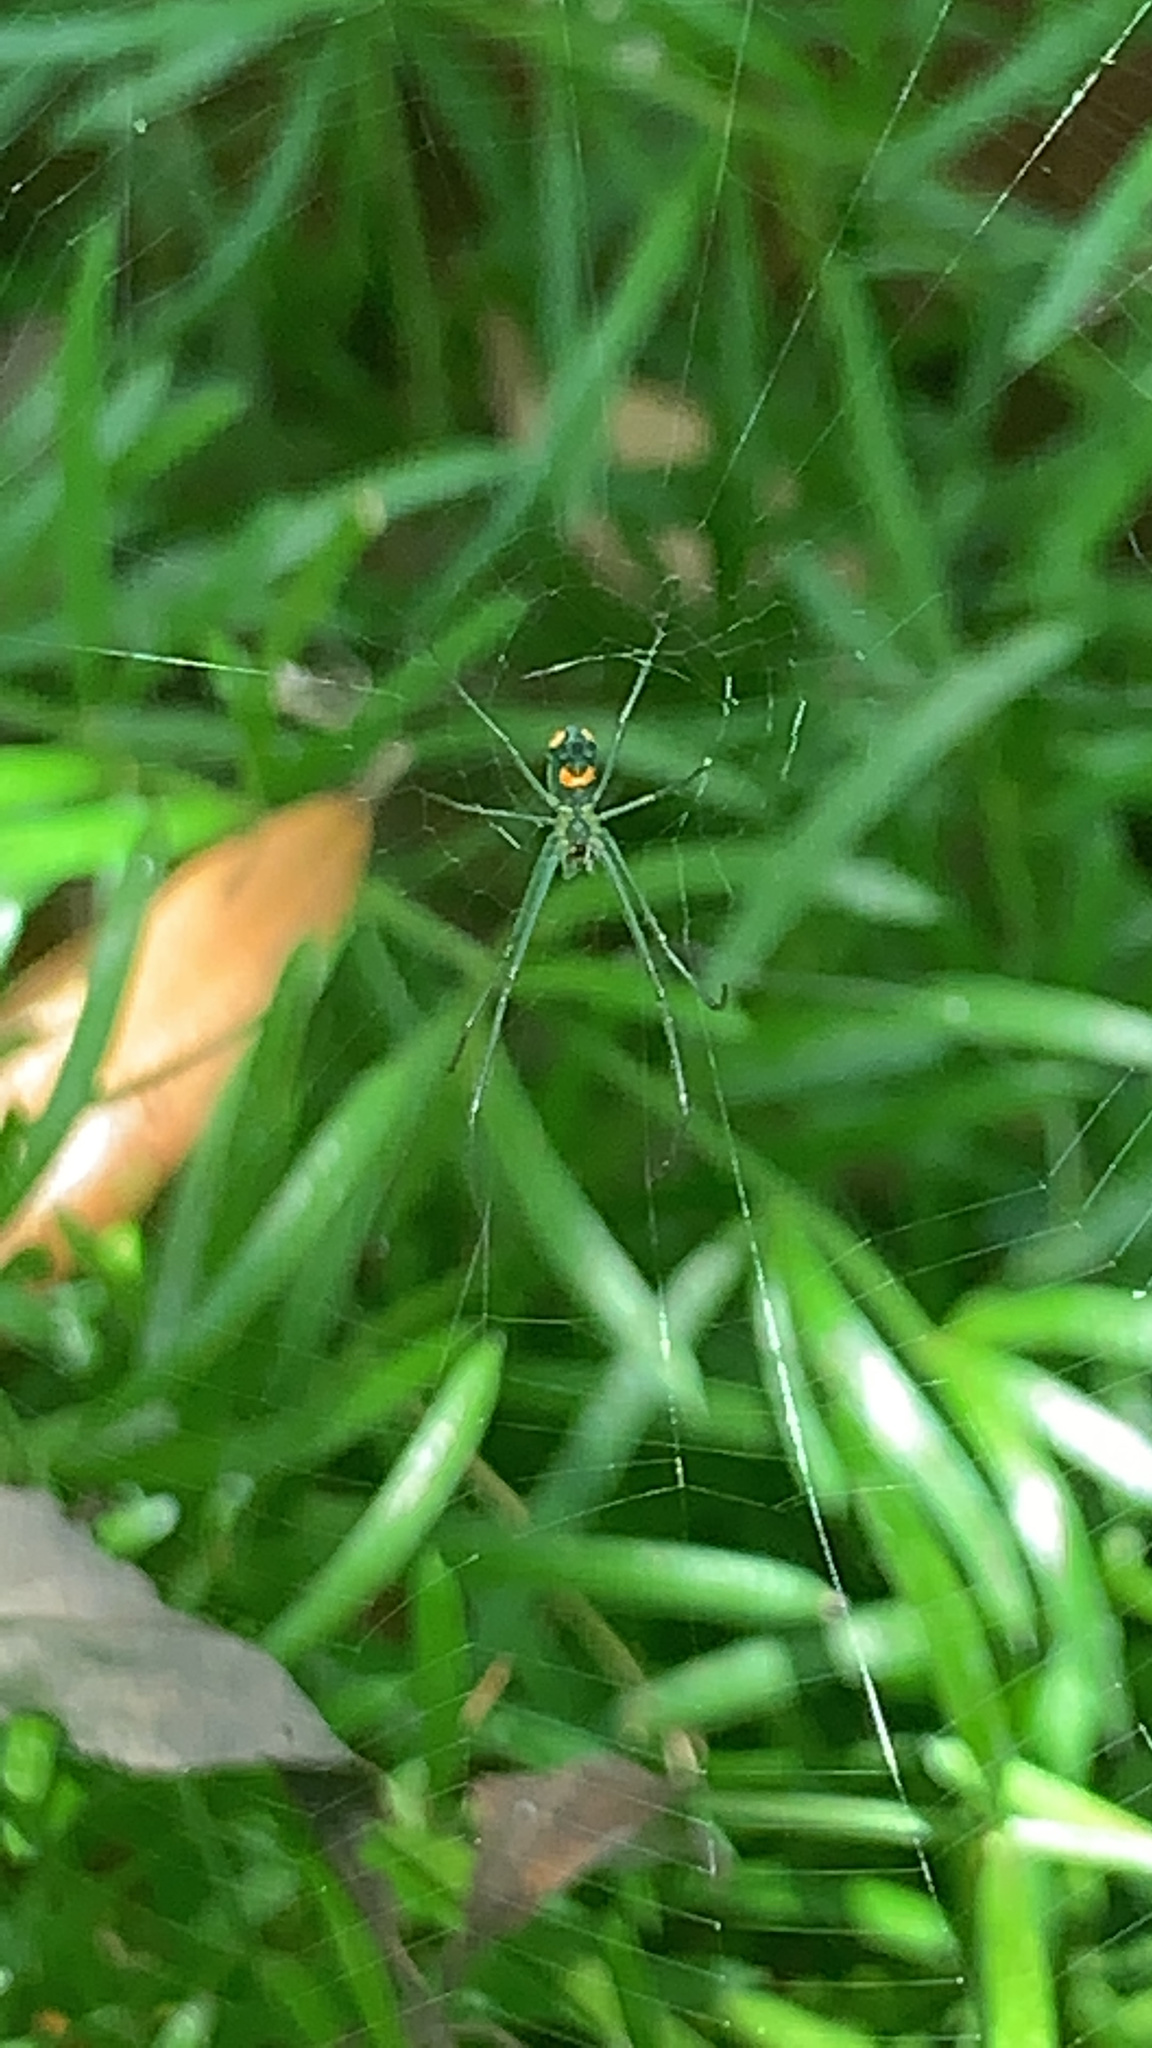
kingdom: Animalia
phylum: Arthropoda
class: Arachnida
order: Araneae
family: Tetragnathidae
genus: Leucauge
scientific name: Leucauge argyrobapta
